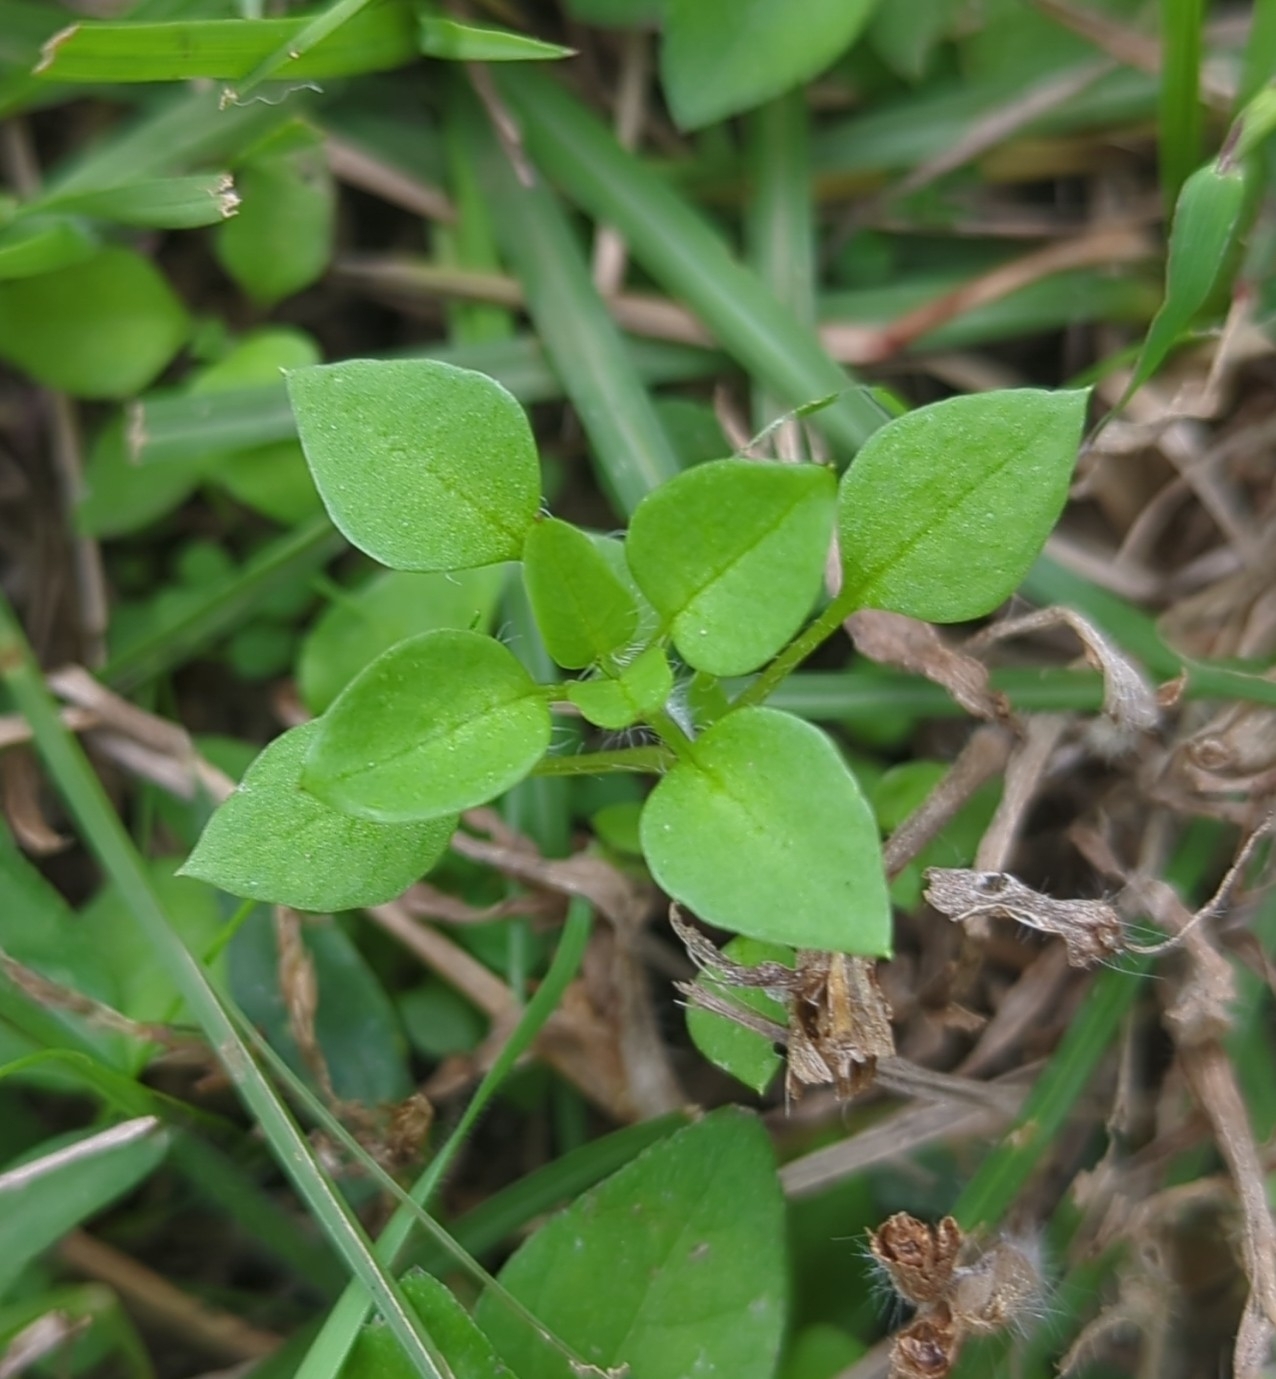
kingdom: Plantae
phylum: Tracheophyta
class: Magnoliopsida
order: Caryophyllales
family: Caryophyllaceae
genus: Stellaria
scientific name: Stellaria media
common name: Common chickweed
